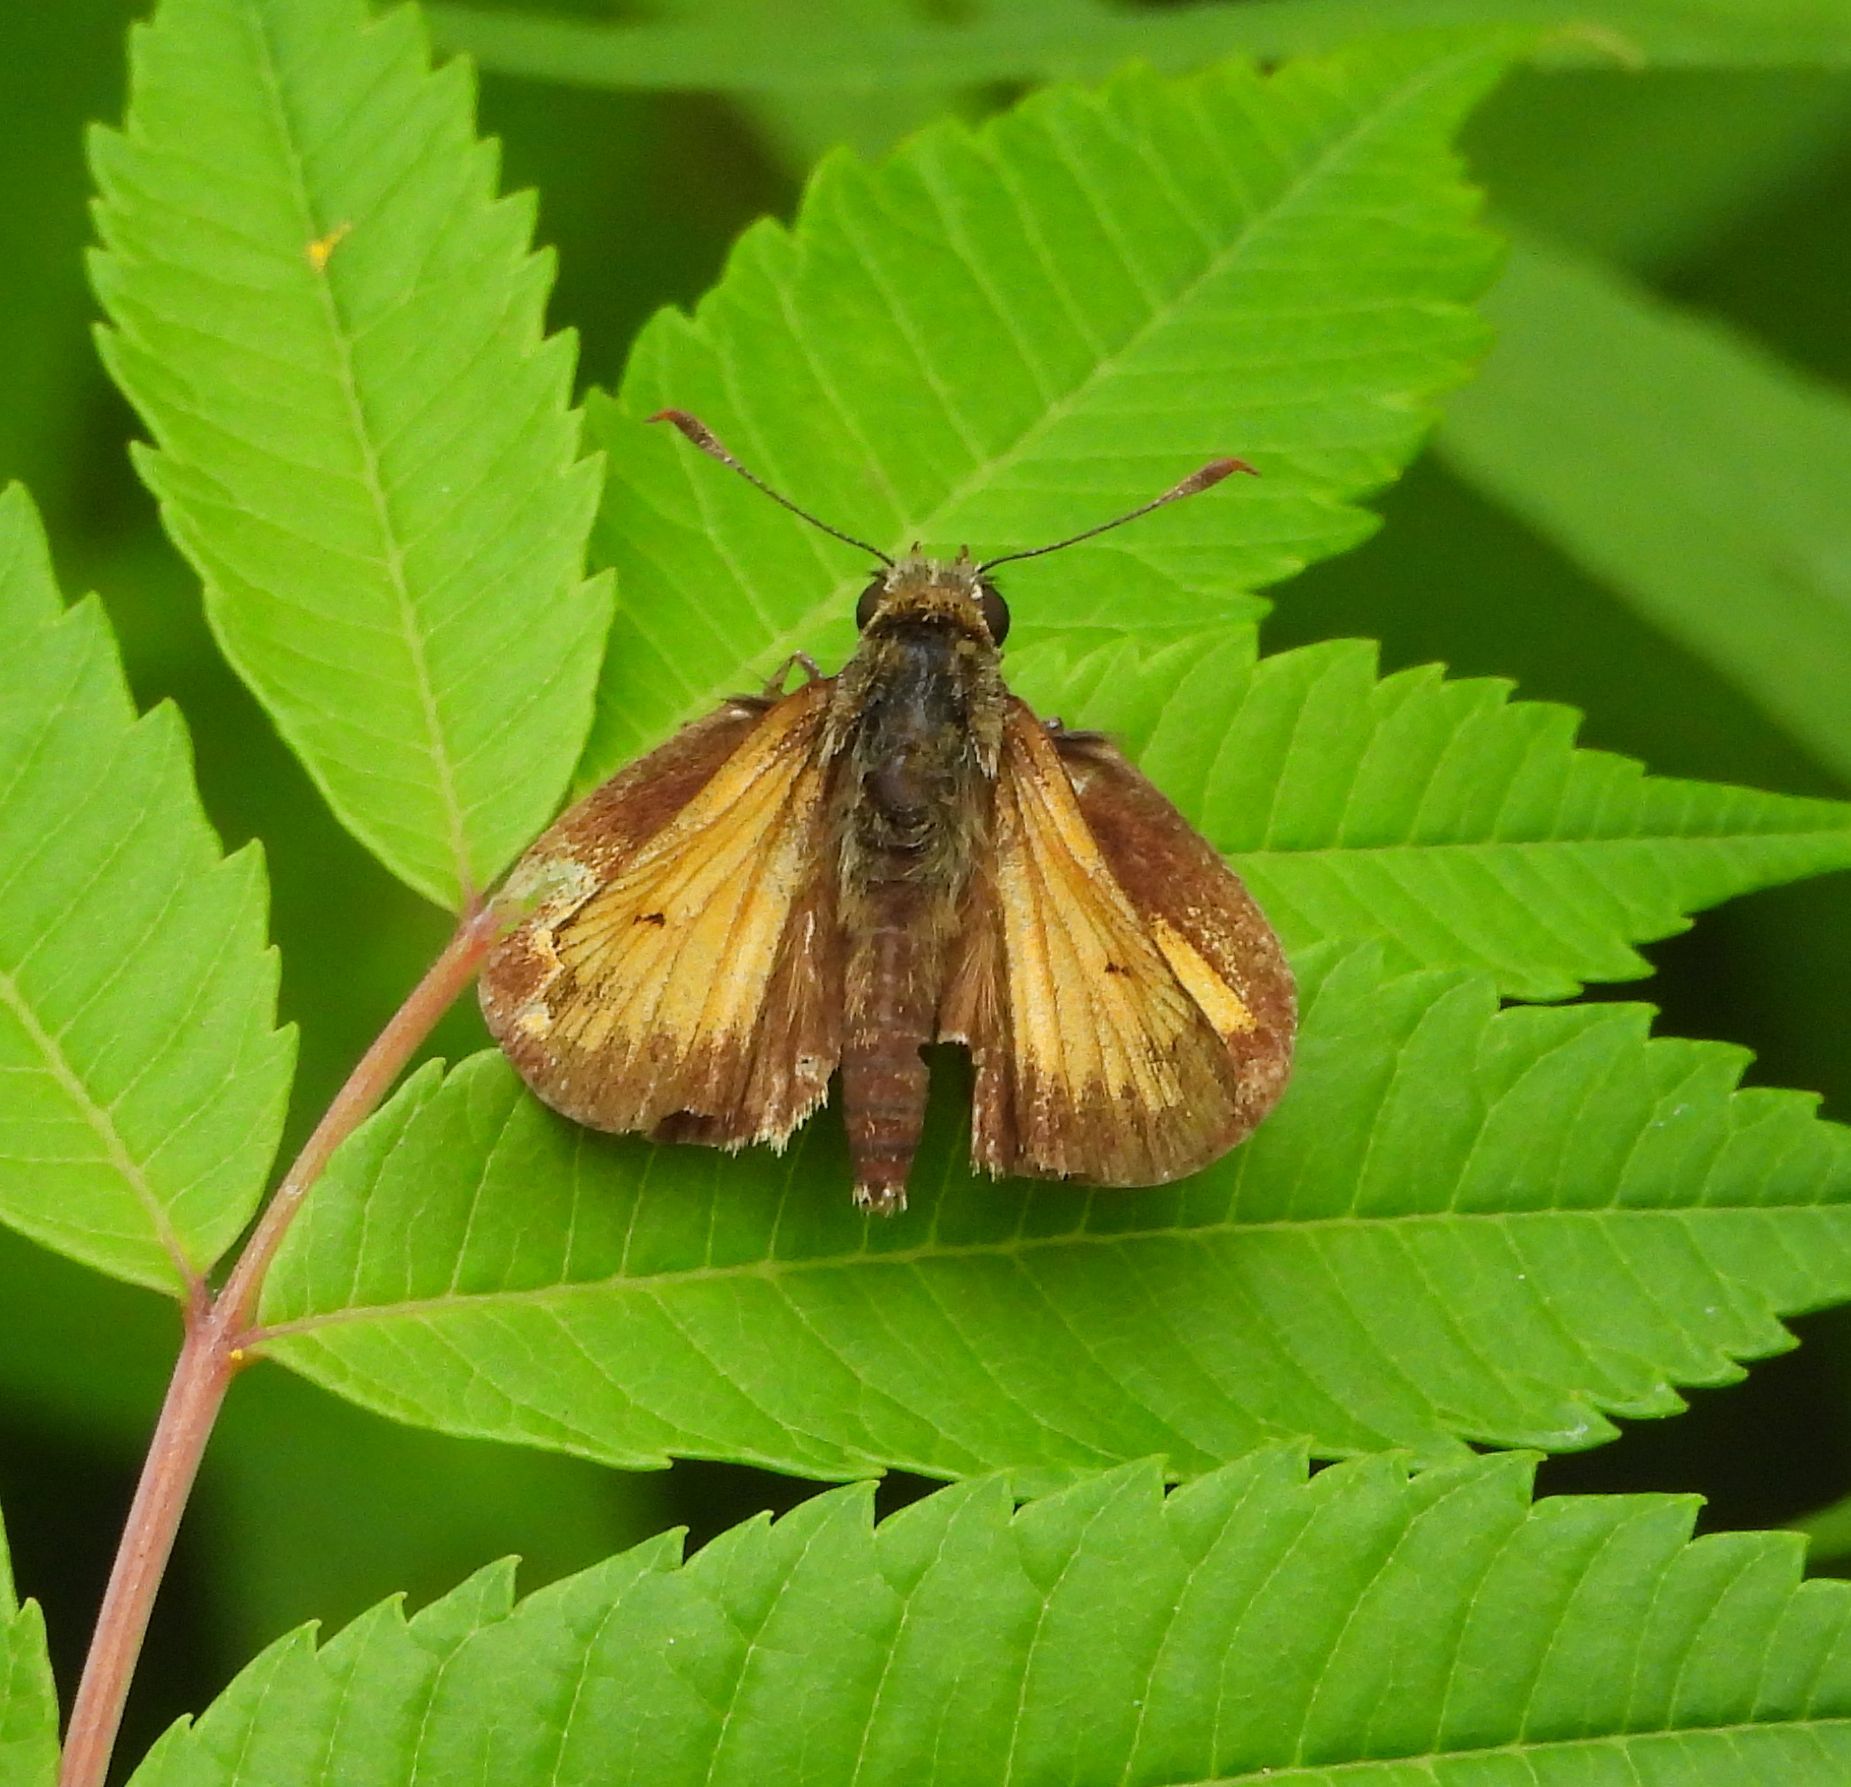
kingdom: Animalia
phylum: Arthropoda
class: Insecta
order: Lepidoptera
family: Hesperiidae
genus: Lon
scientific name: Lon hobomok
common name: Hobomok skipper
